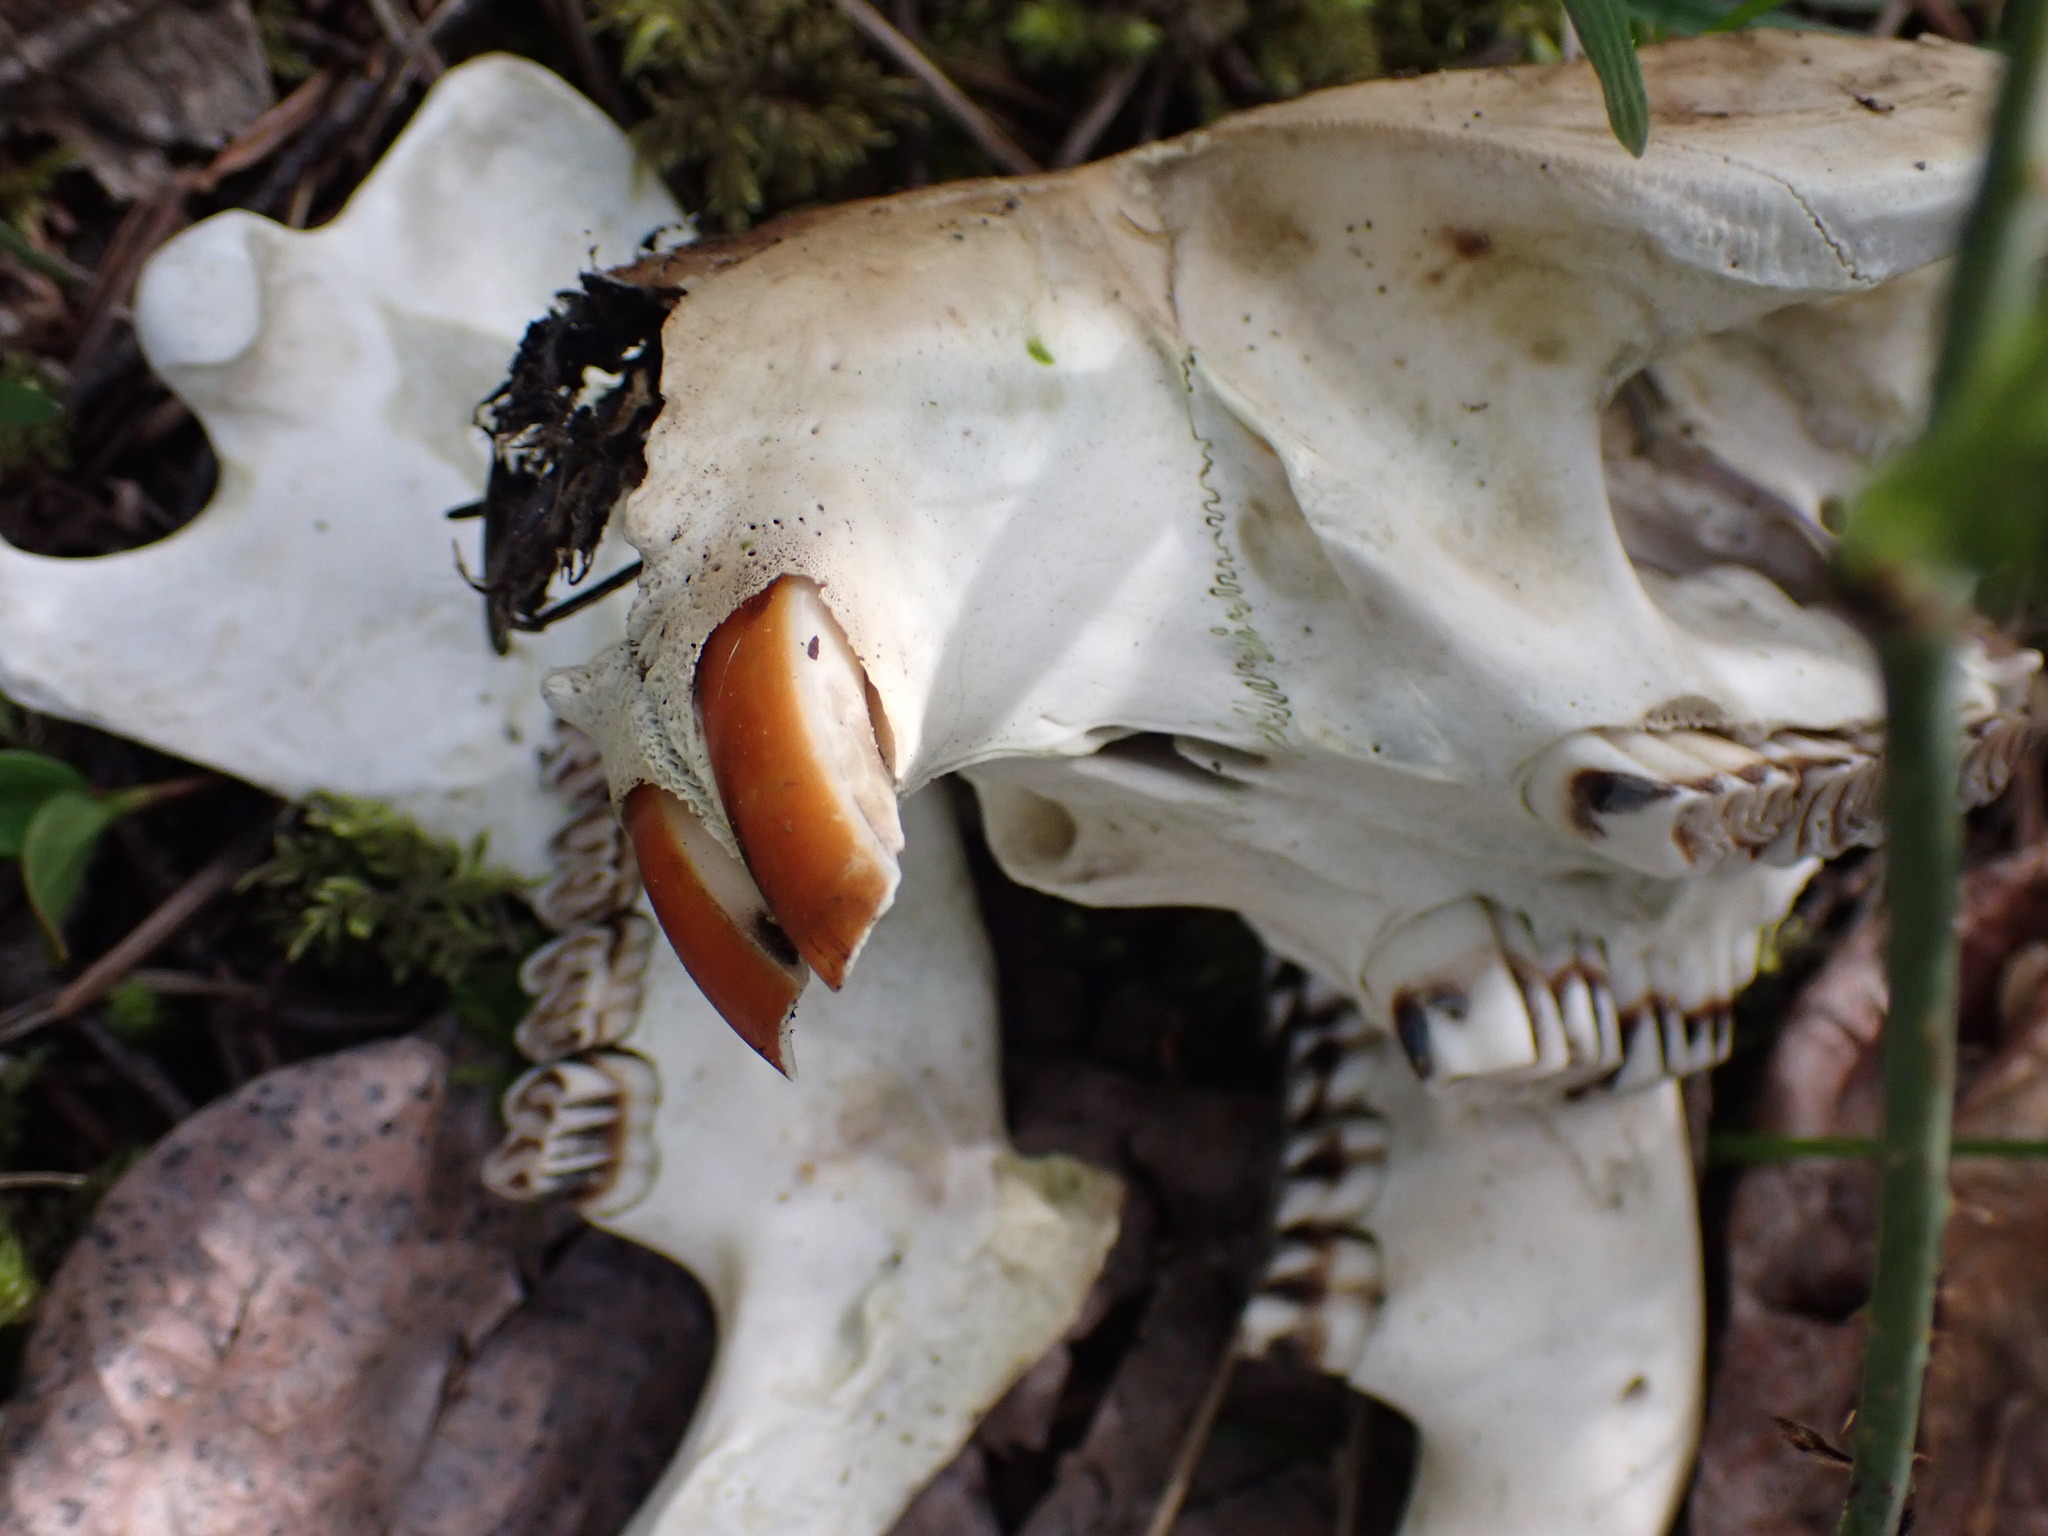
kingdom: Animalia
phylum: Chordata
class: Mammalia
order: Rodentia
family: Castoridae
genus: Castor
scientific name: Castor canadensis
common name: American beaver
